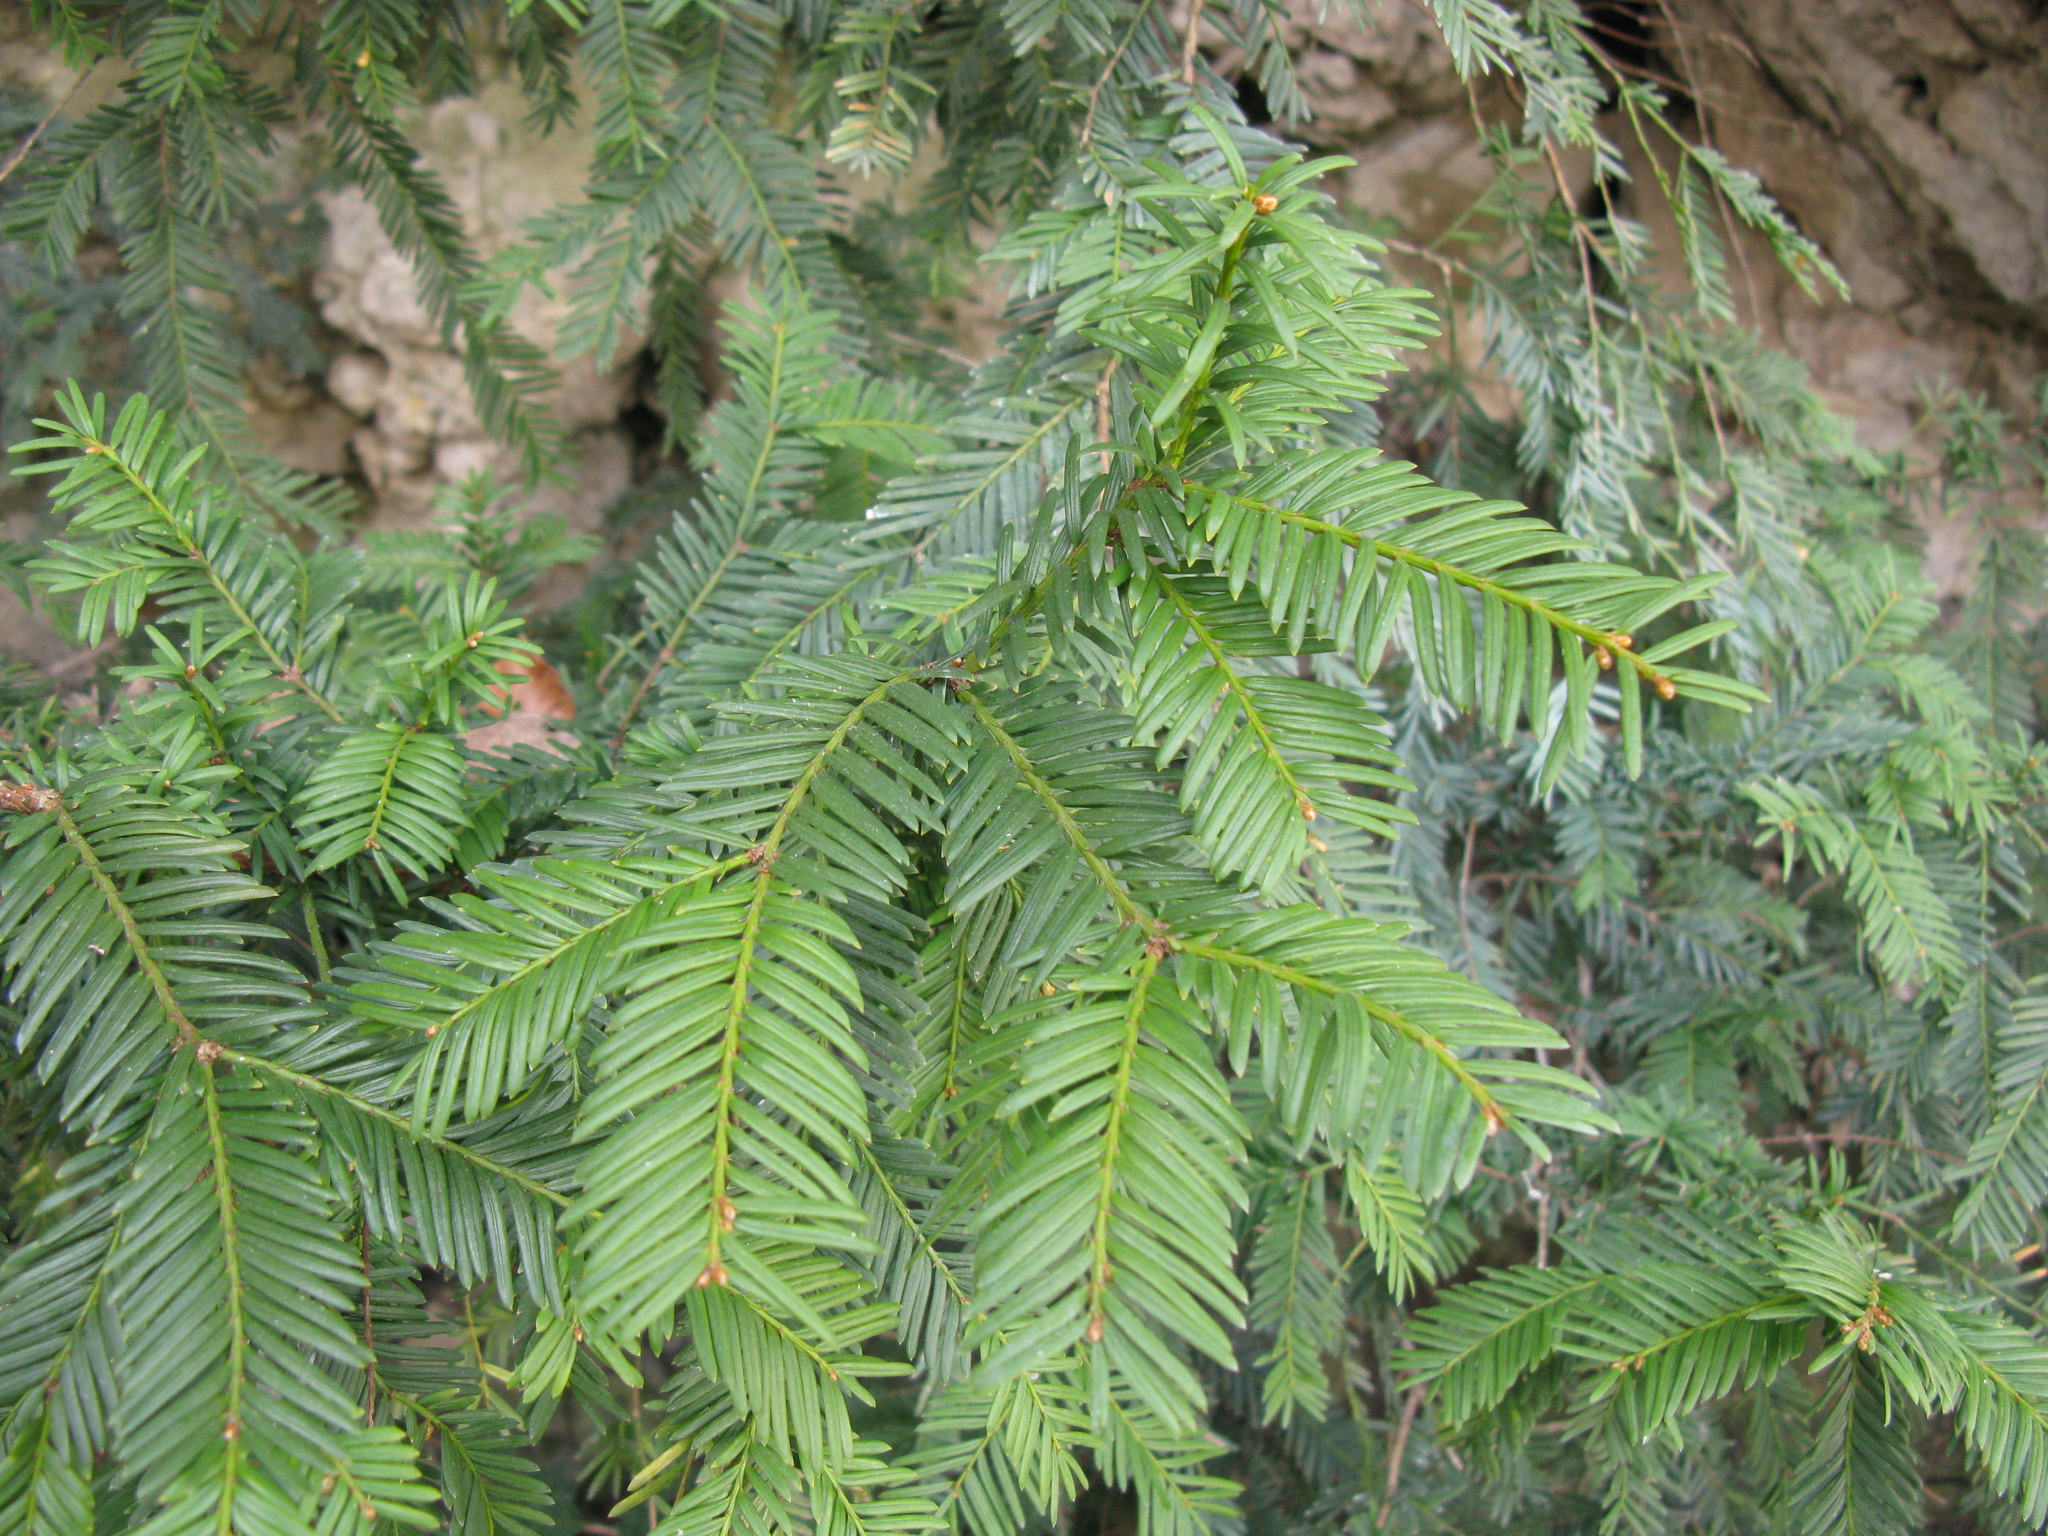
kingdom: Plantae
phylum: Tracheophyta
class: Pinopsida
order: Pinales
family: Taxaceae
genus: Taxus
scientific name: Taxus baccata
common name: Yew
